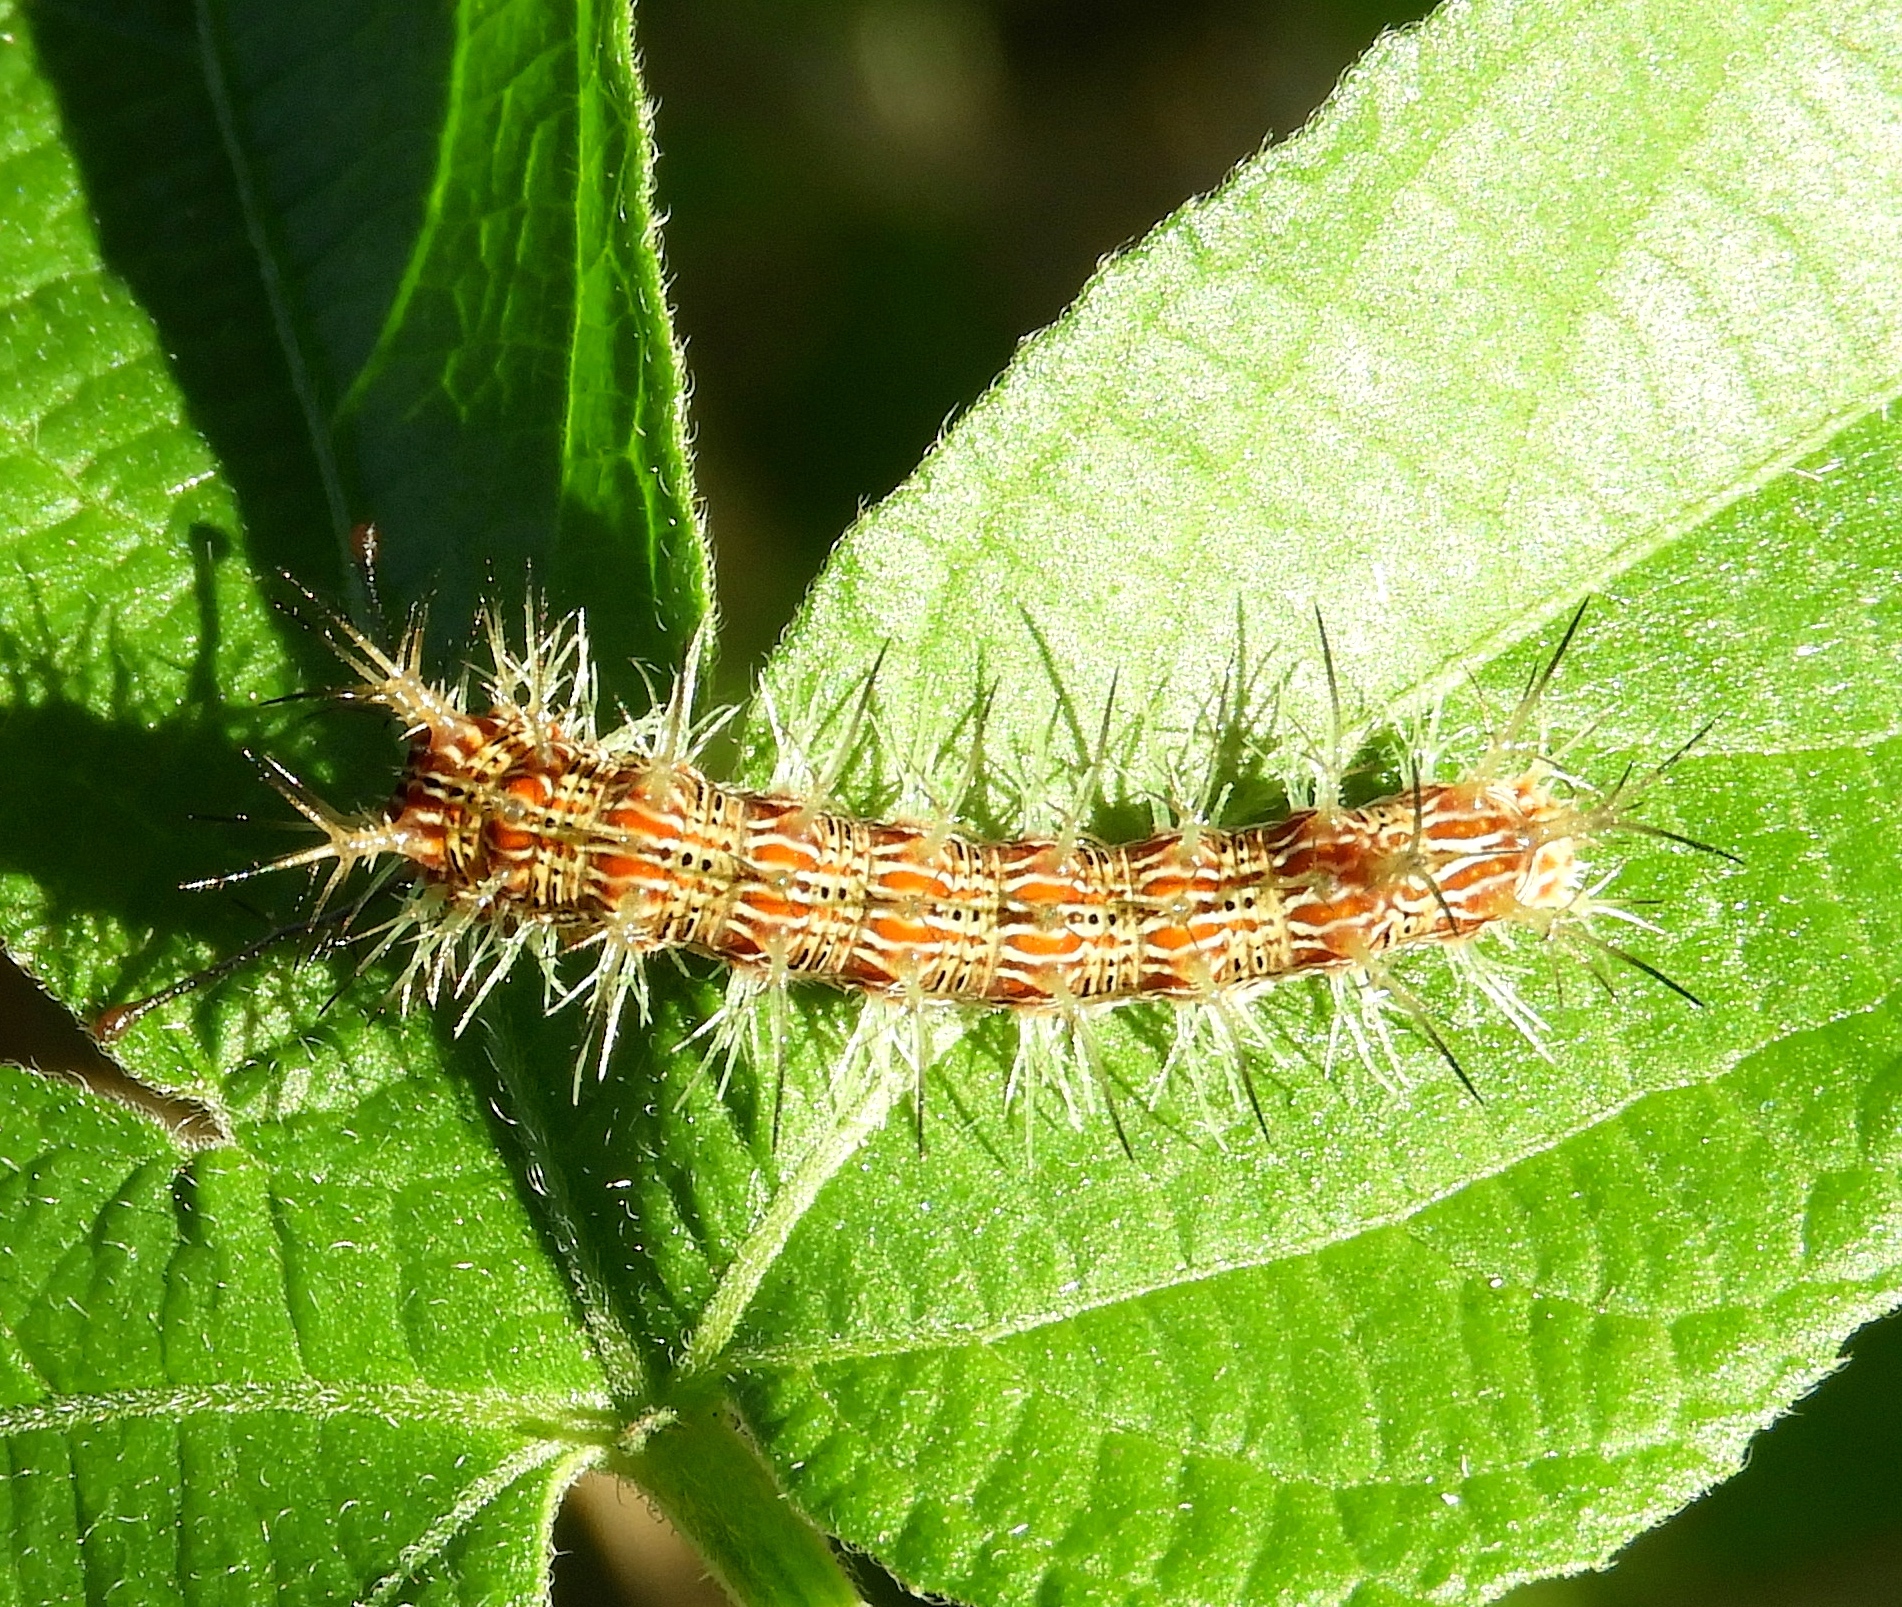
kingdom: Animalia
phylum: Arthropoda
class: Insecta
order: Lepidoptera
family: Nymphalidae
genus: Hamadryas
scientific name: Hamadryas
